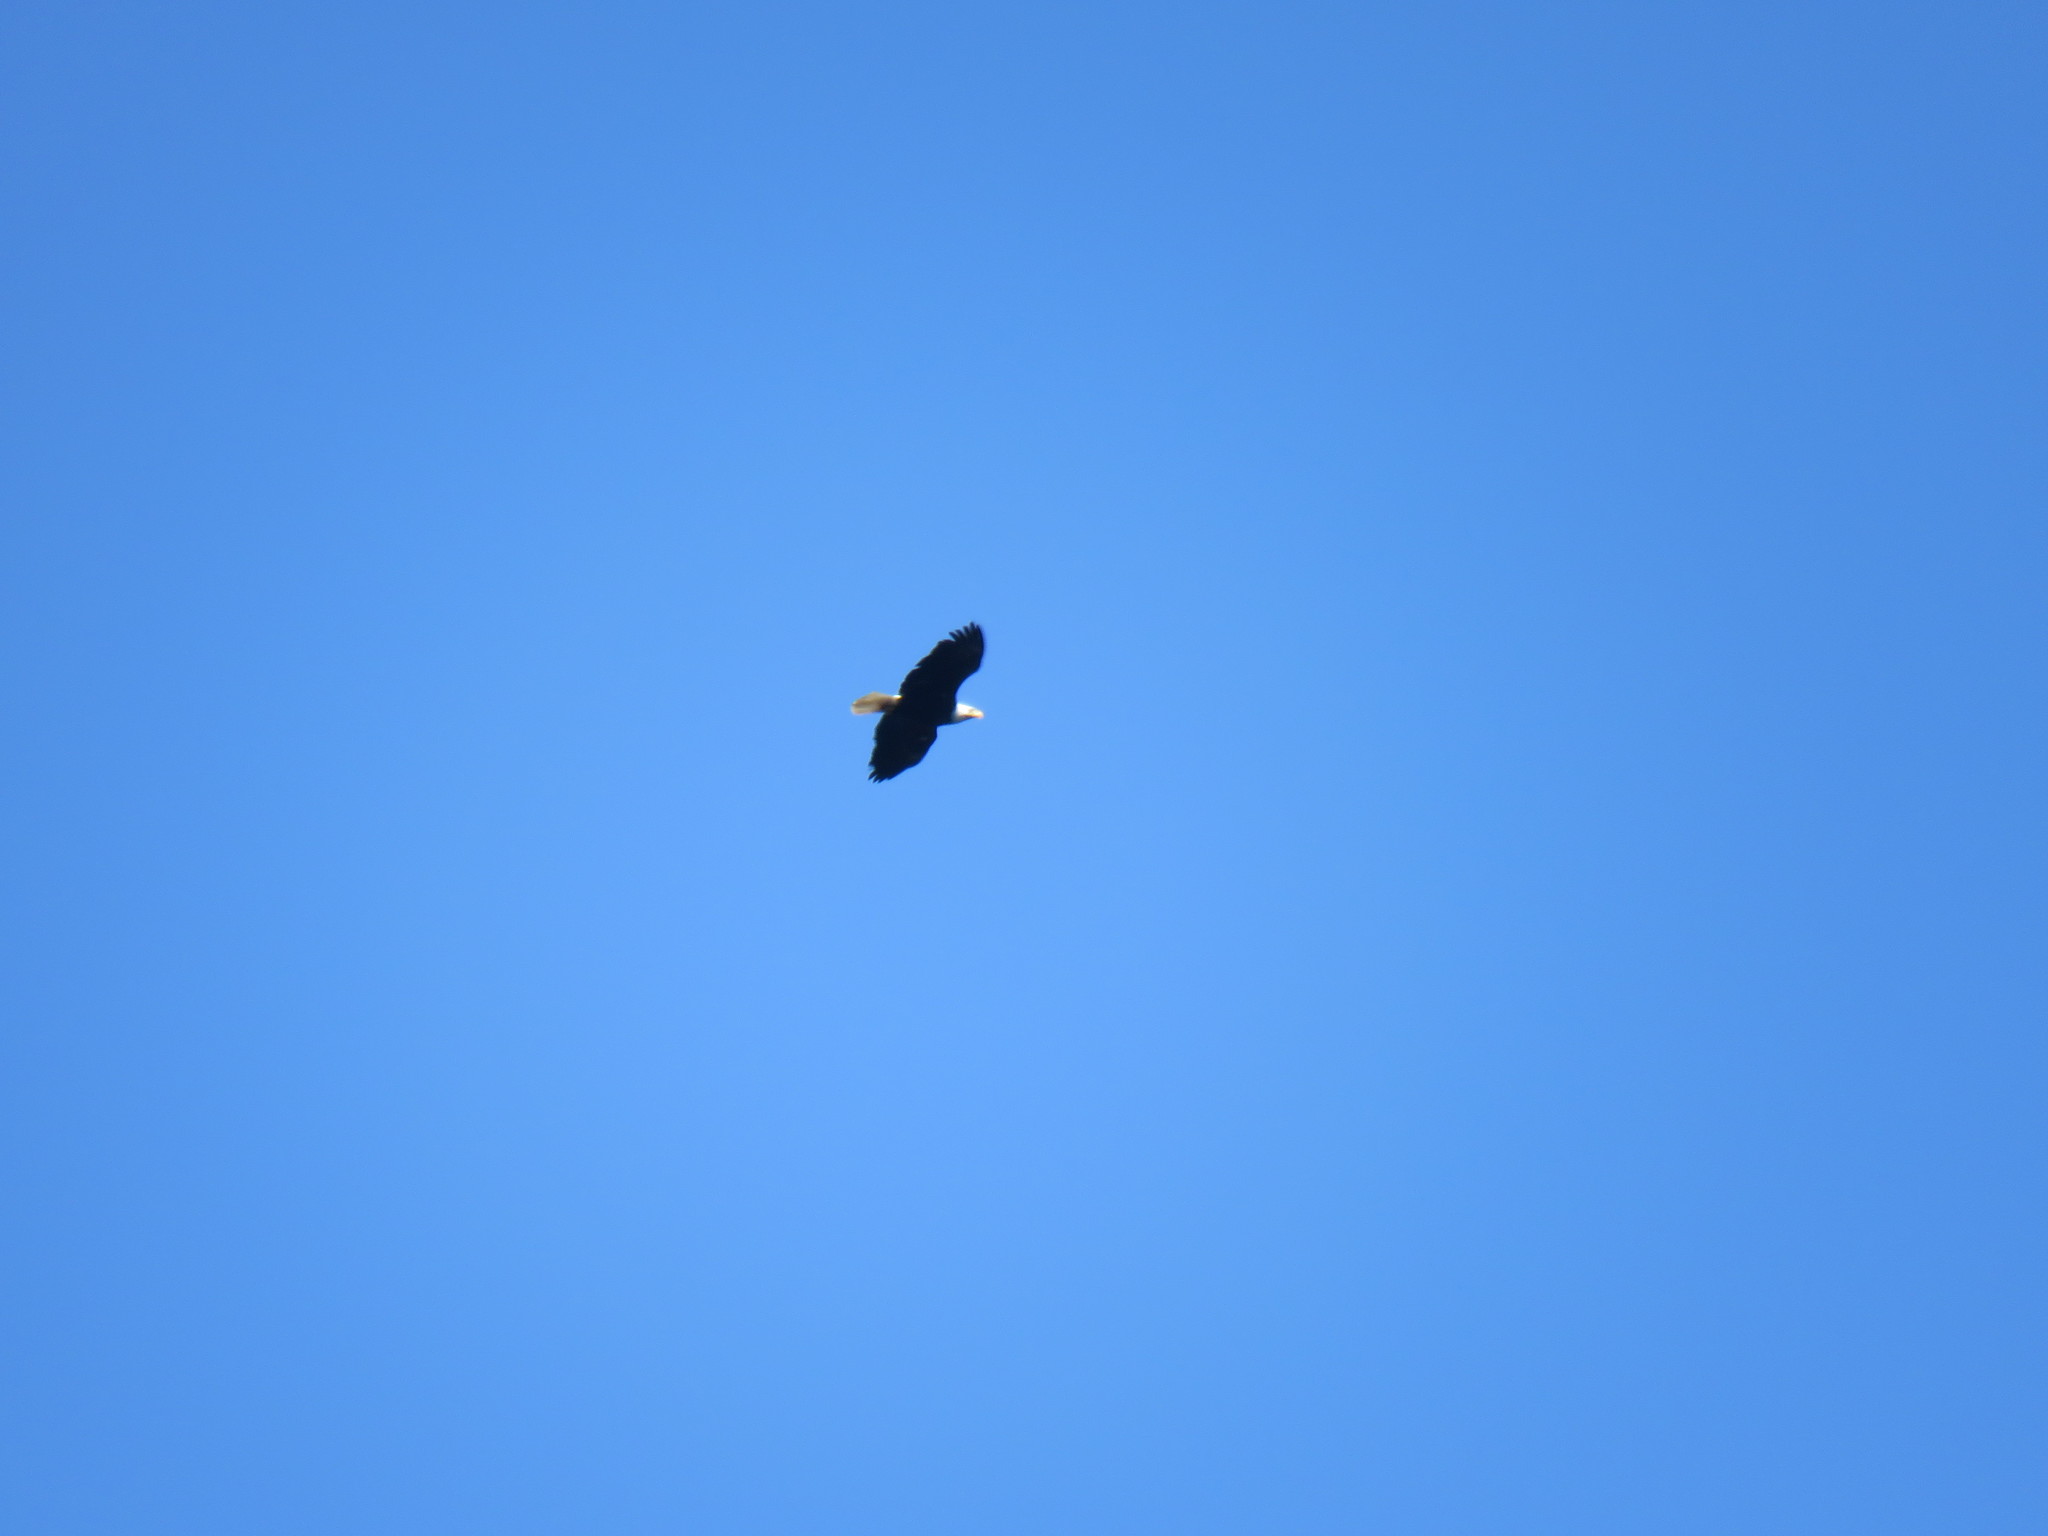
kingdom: Animalia
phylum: Chordata
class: Aves
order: Accipitriformes
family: Accipitridae
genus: Haliaeetus
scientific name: Haliaeetus leucocephalus
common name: Bald eagle
